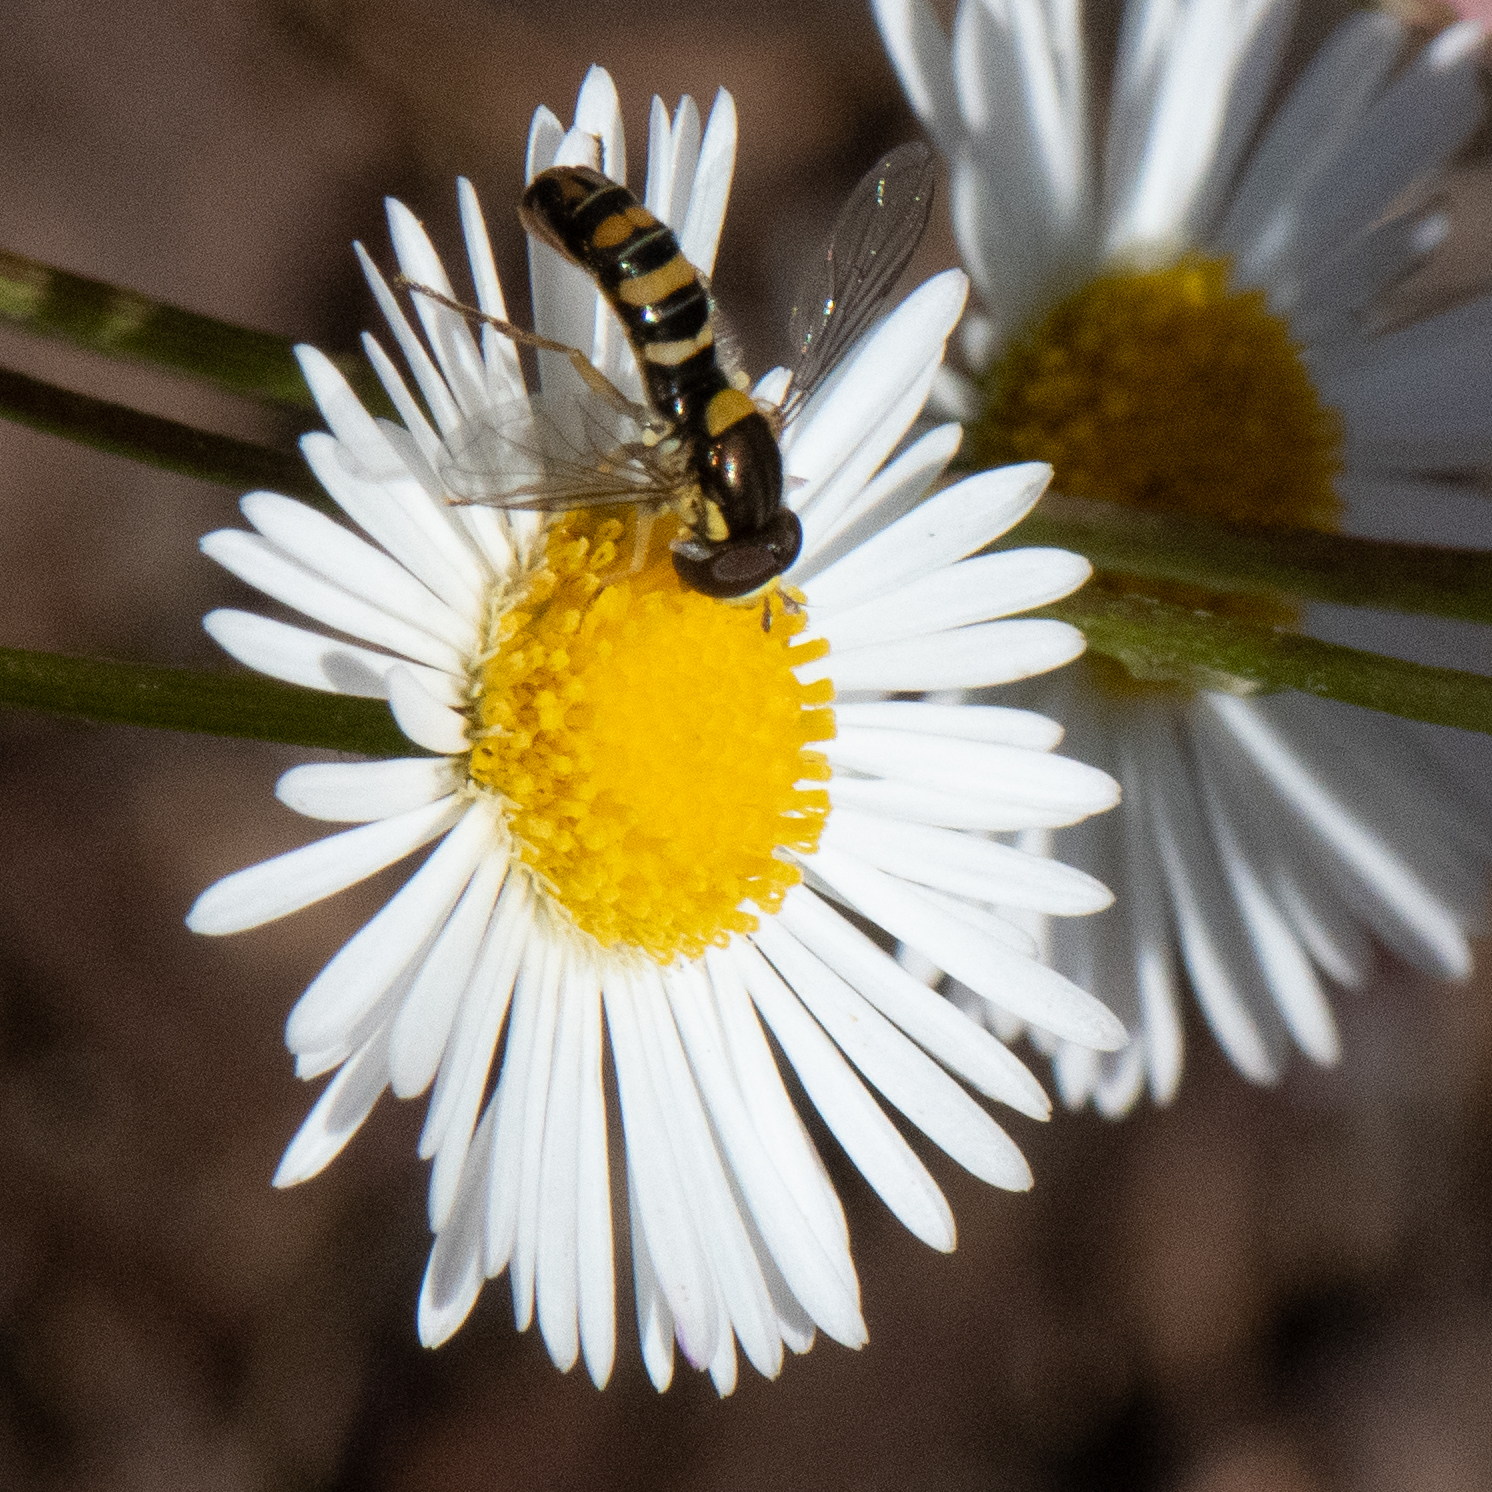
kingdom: Animalia
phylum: Arthropoda
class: Insecta
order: Diptera
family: Syrphidae
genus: Sphaerophoria
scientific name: Sphaerophoria sulphuripes
